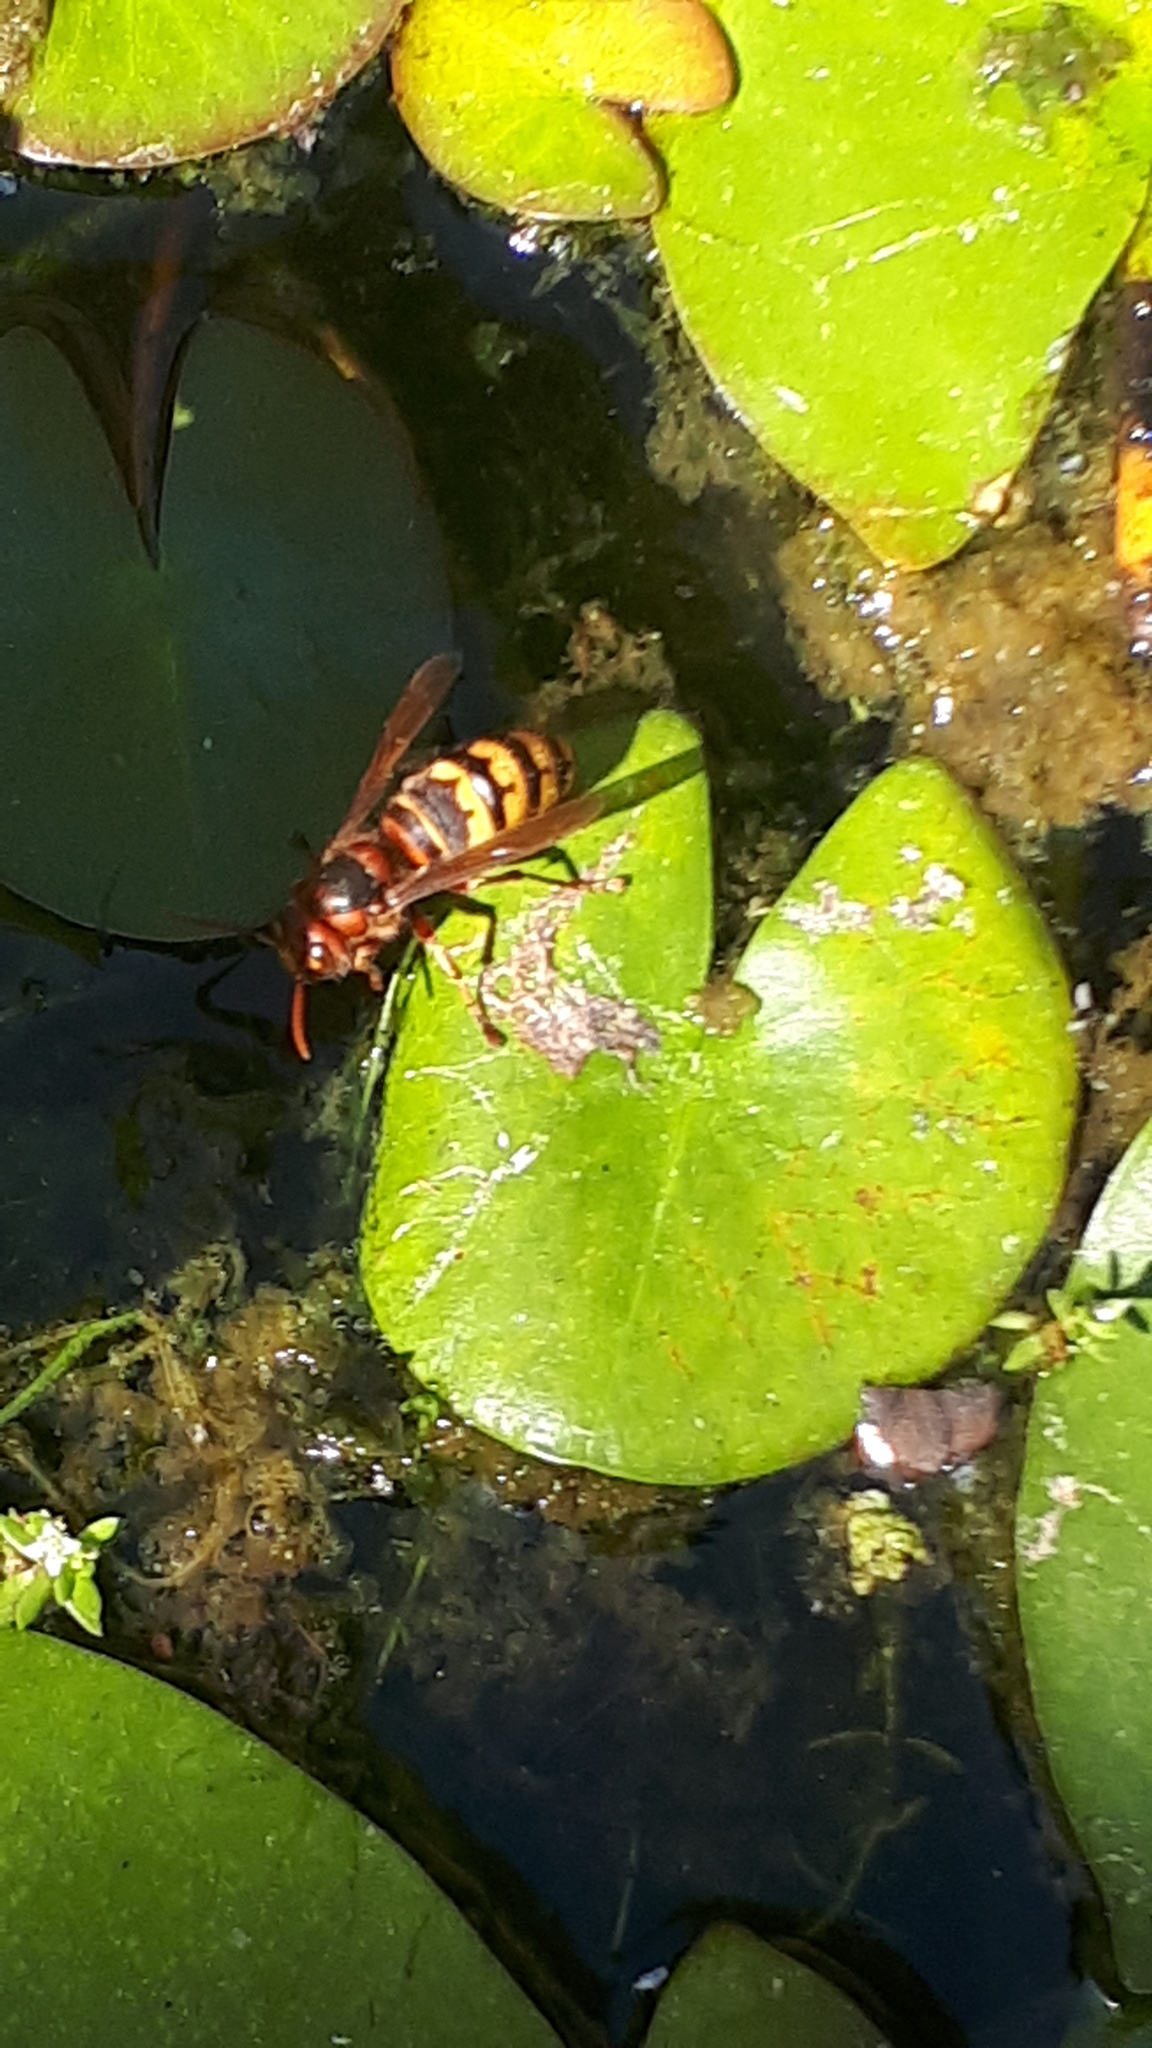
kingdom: Animalia
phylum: Arthropoda
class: Insecta
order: Hymenoptera
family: Vespidae
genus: Vespa
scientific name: Vespa crabro
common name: Hornet
